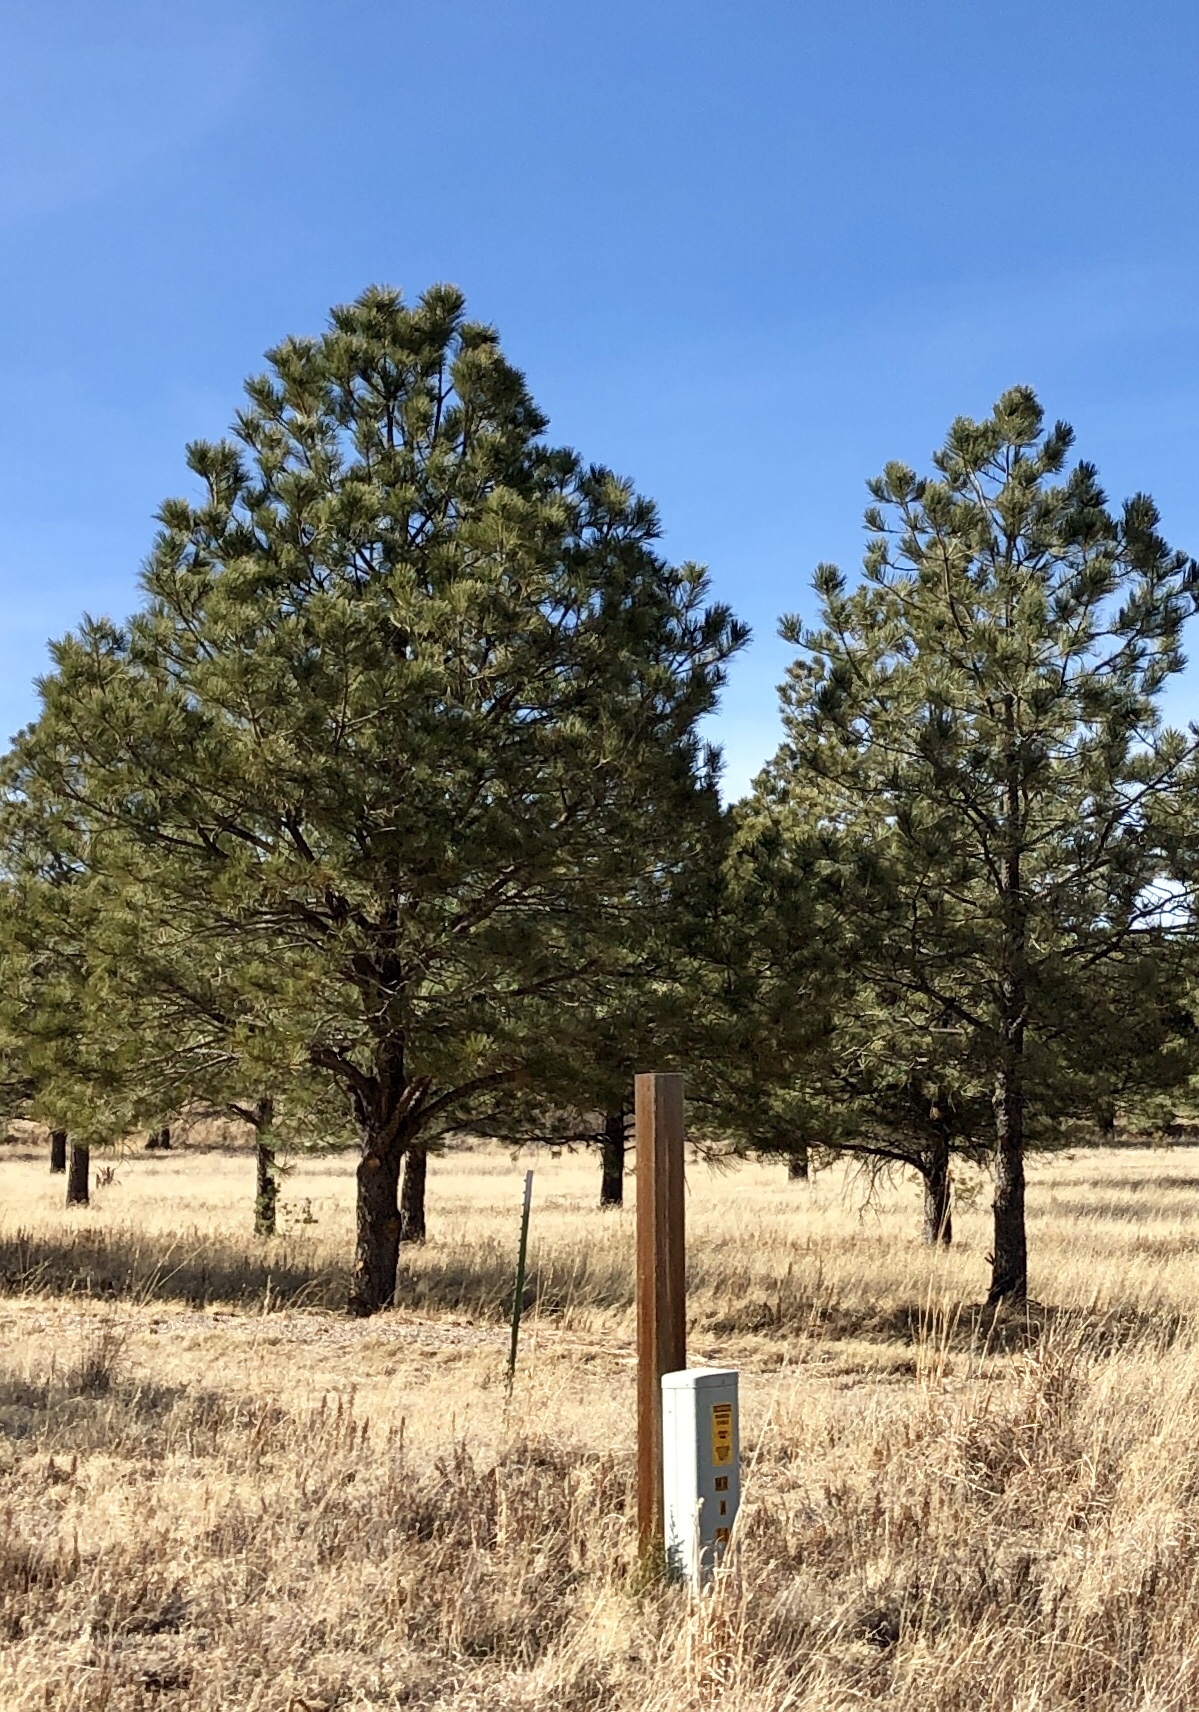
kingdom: Plantae
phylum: Tracheophyta
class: Pinopsida
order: Pinales
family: Pinaceae
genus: Pinus
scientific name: Pinus ponderosa
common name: Western yellow-pine
